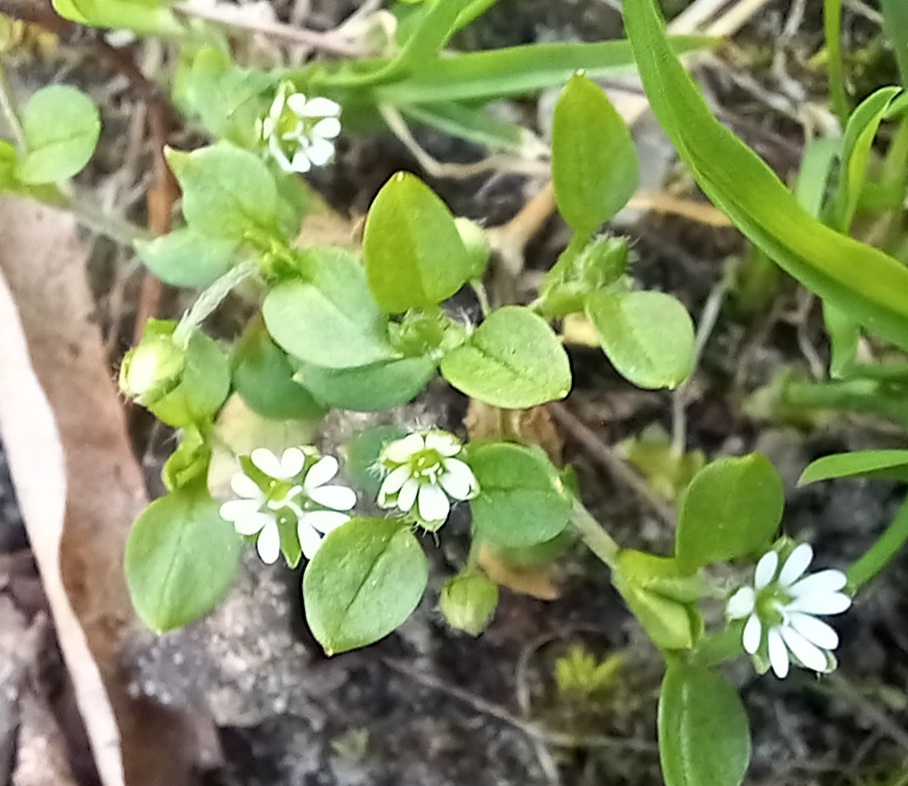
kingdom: Plantae
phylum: Tracheophyta
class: Magnoliopsida
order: Caryophyllales
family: Caryophyllaceae
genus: Stellaria
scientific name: Stellaria media
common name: Common chickweed
